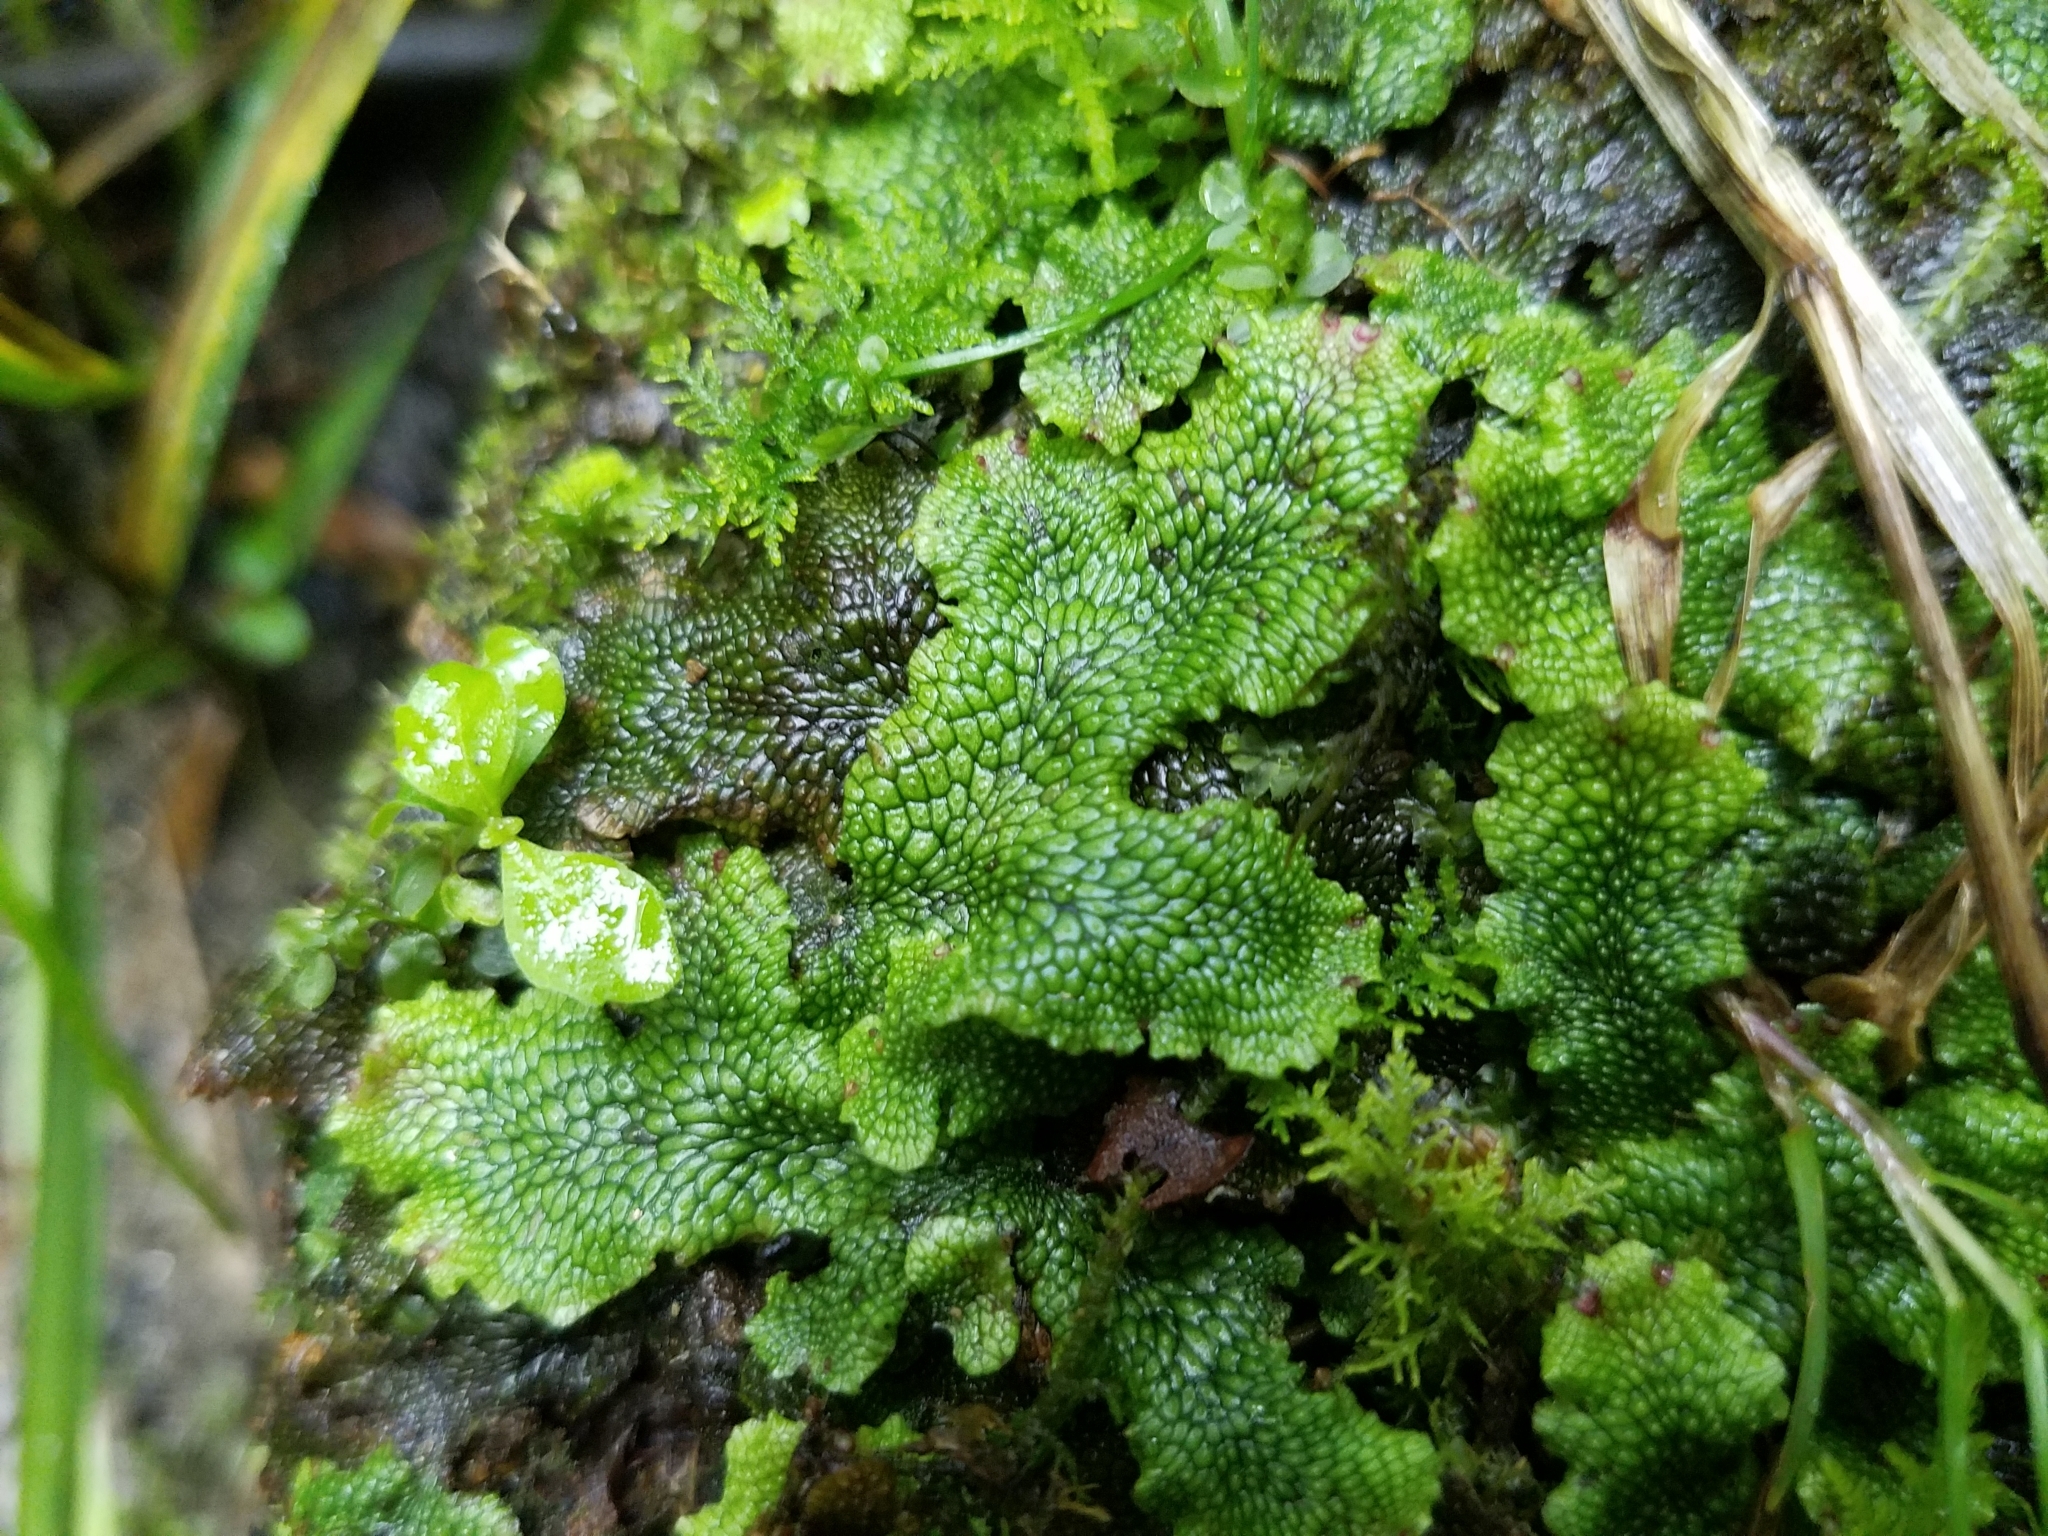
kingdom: Plantae
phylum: Marchantiophyta
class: Marchantiopsida
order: Marchantiales
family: Conocephalaceae
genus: Conocephalum
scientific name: Conocephalum salebrosum
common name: Cat-tongue liverwort
